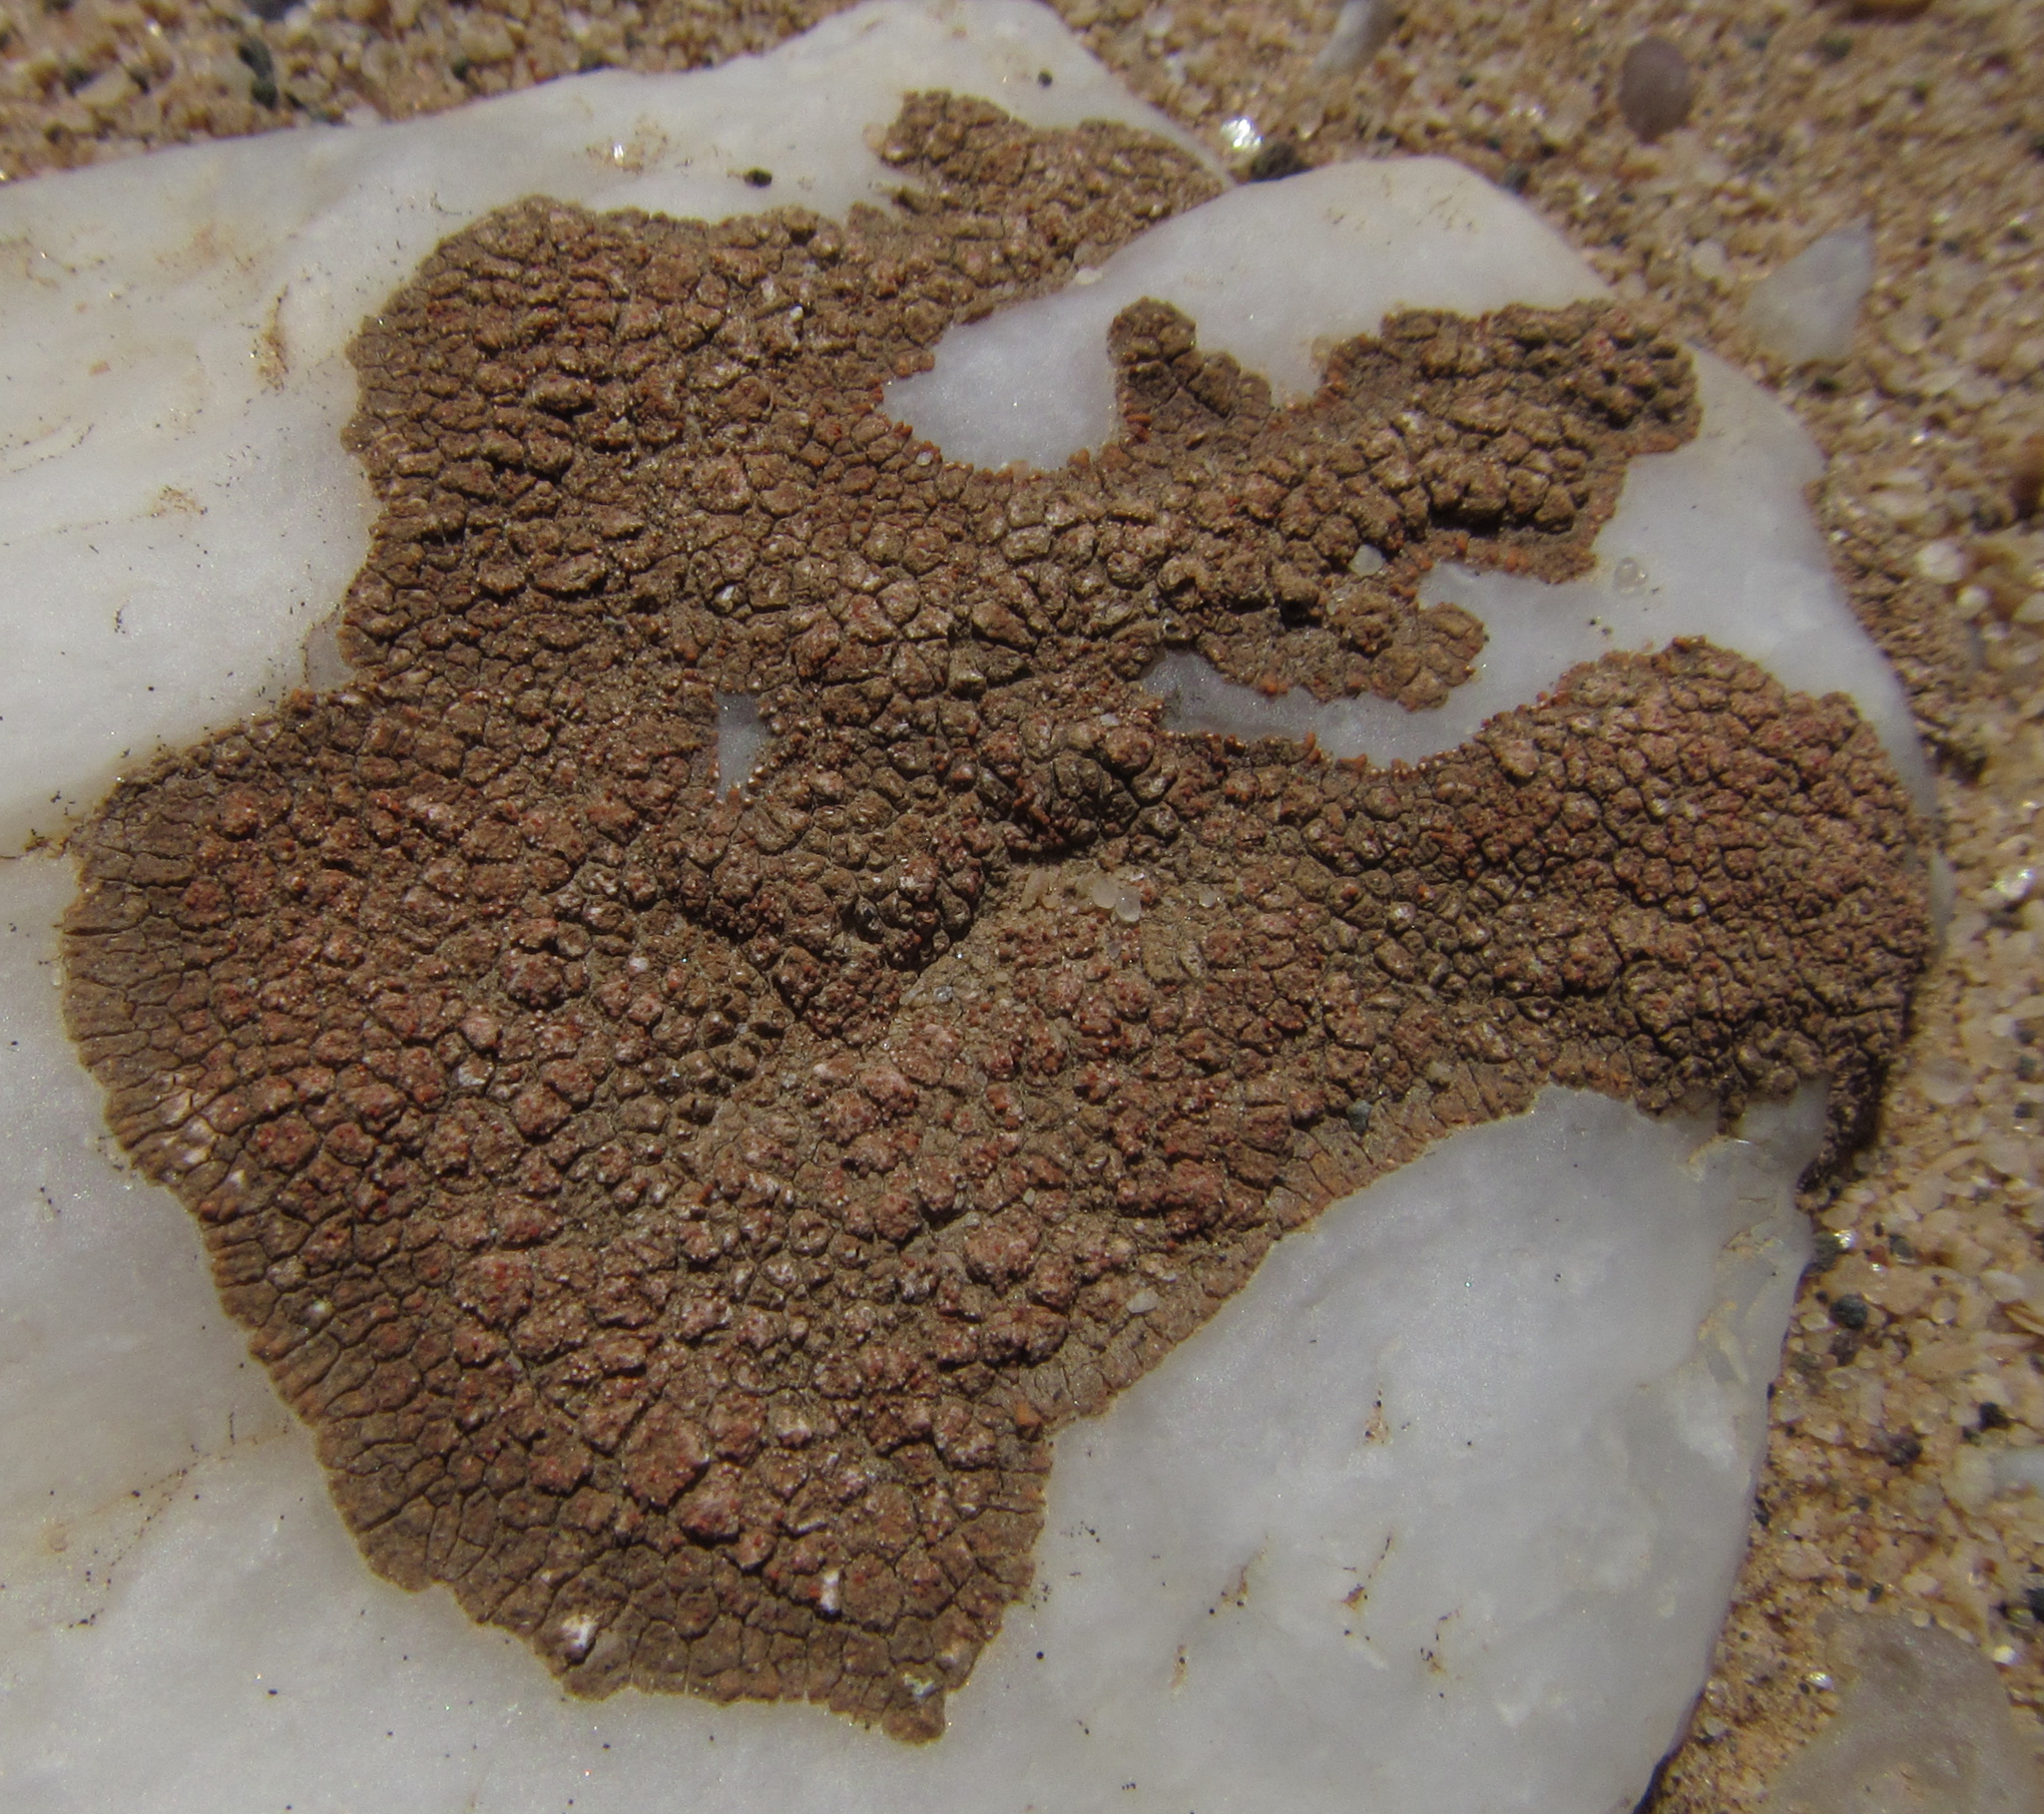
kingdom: Fungi
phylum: Ascomycota
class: Lecanoromycetes
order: Teloschistales
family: Teloschistaceae
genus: Stellarangia
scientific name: Stellarangia testudinea
